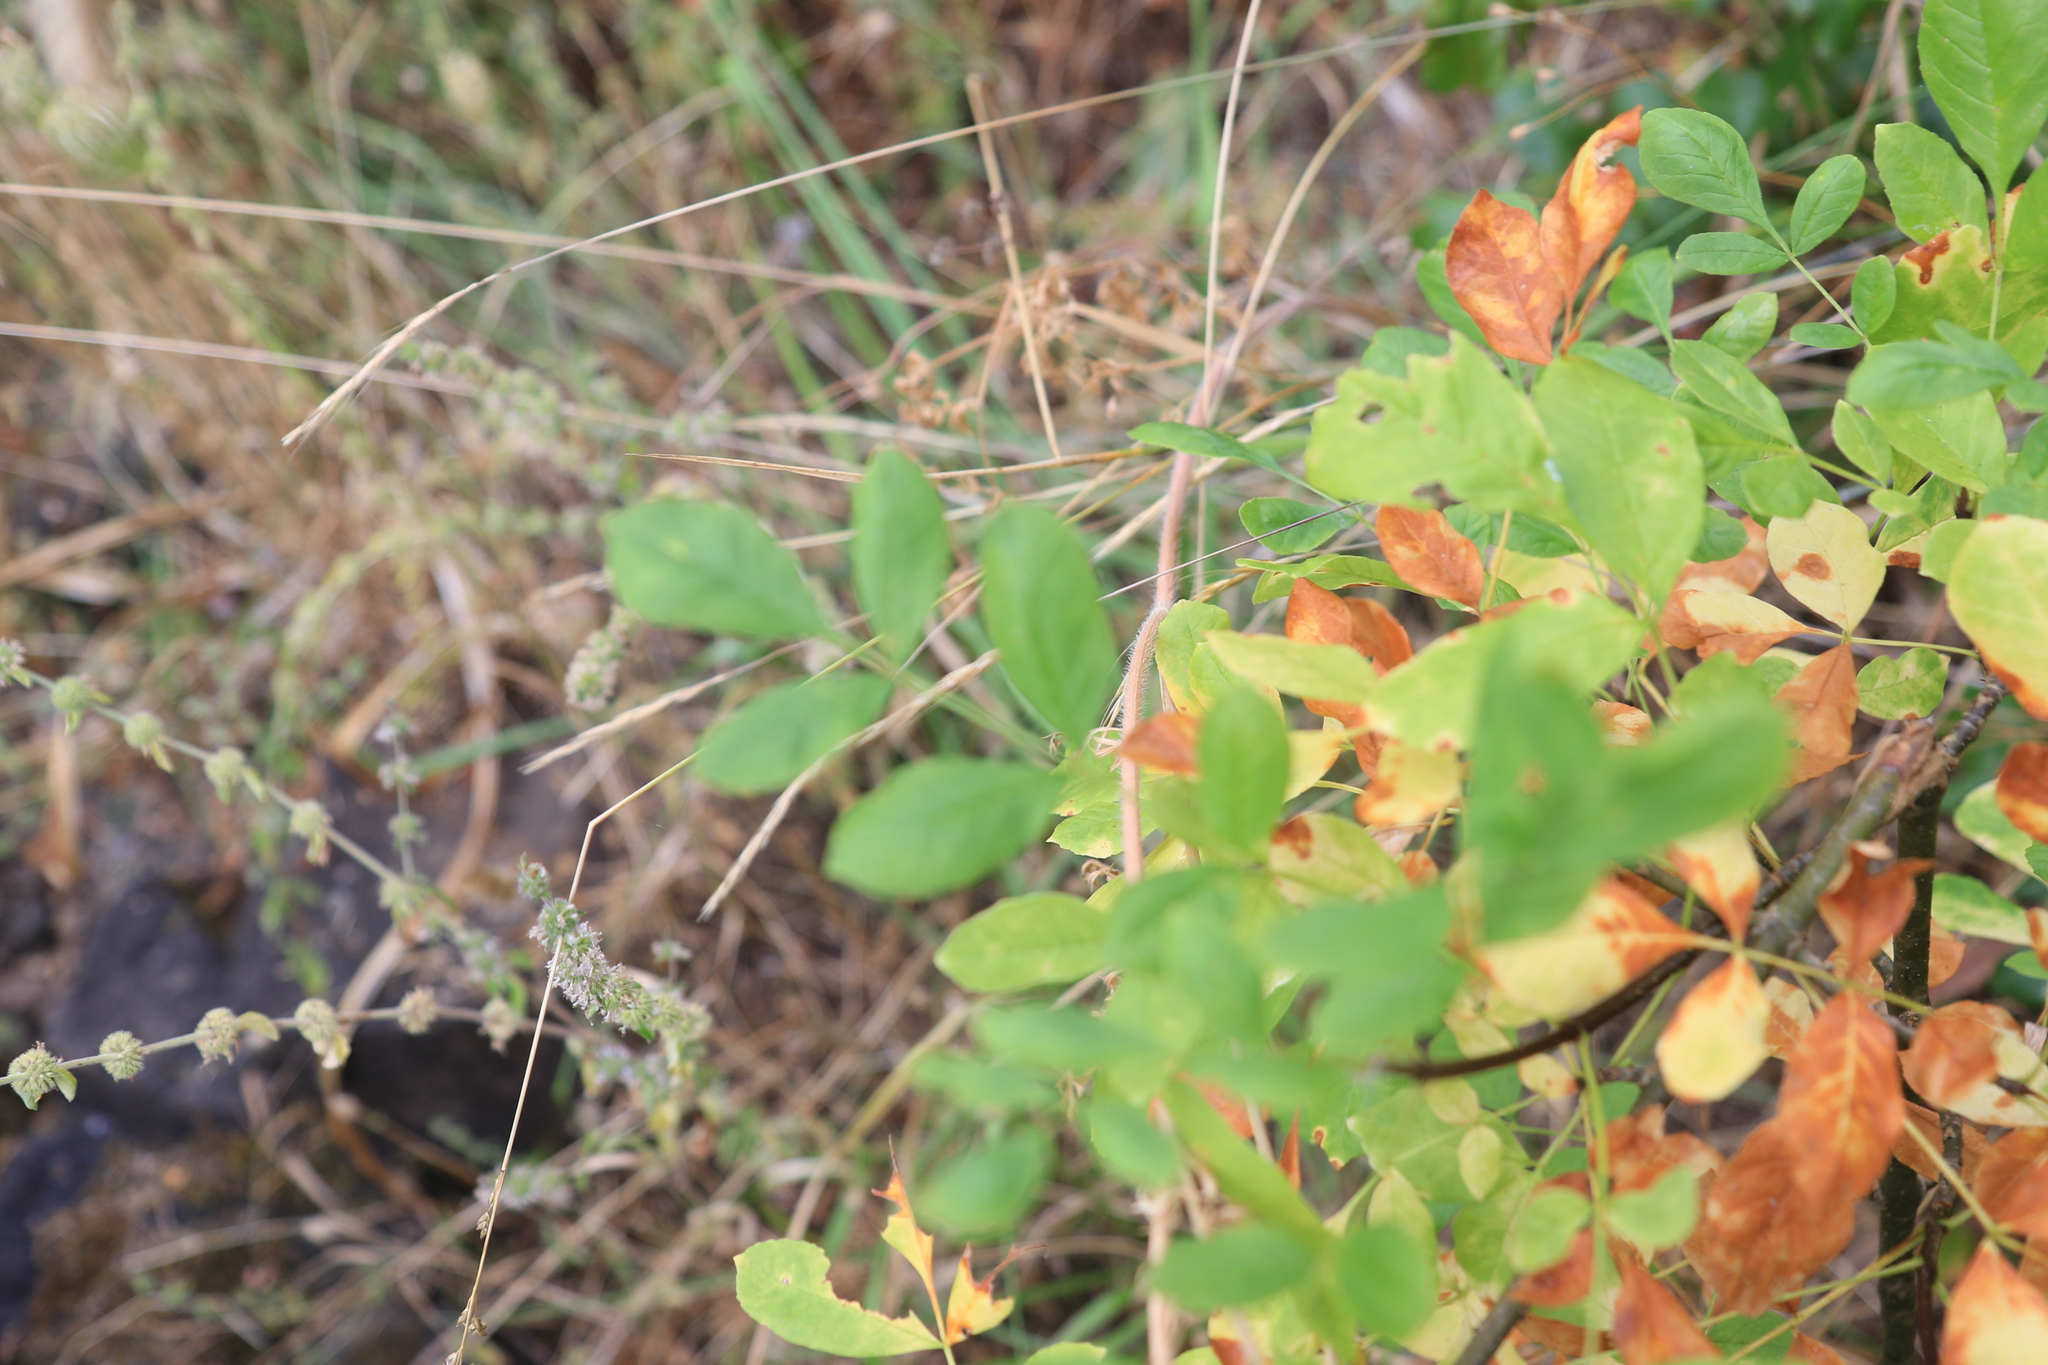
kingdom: Plantae
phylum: Tracheophyta
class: Magnoliopsida
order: Lamiales
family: Oleaceae
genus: Fraxinus
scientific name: Fraxinus latifolia
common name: Oregon ash
